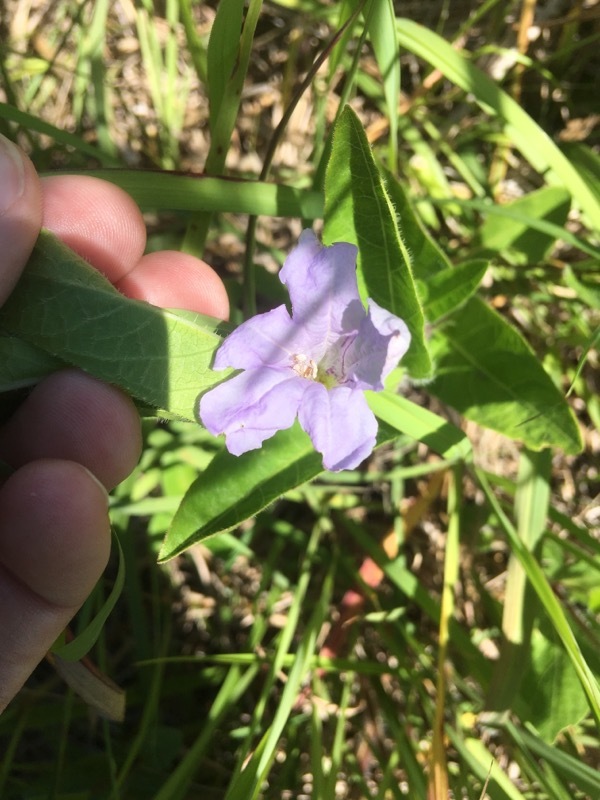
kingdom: Plantae
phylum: Tracheophyta
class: Magnoliopsida
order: Lamiales
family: Acanthaceae
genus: Ruellia
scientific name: Ruellia humilis
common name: Fringe-leaf ruellia
